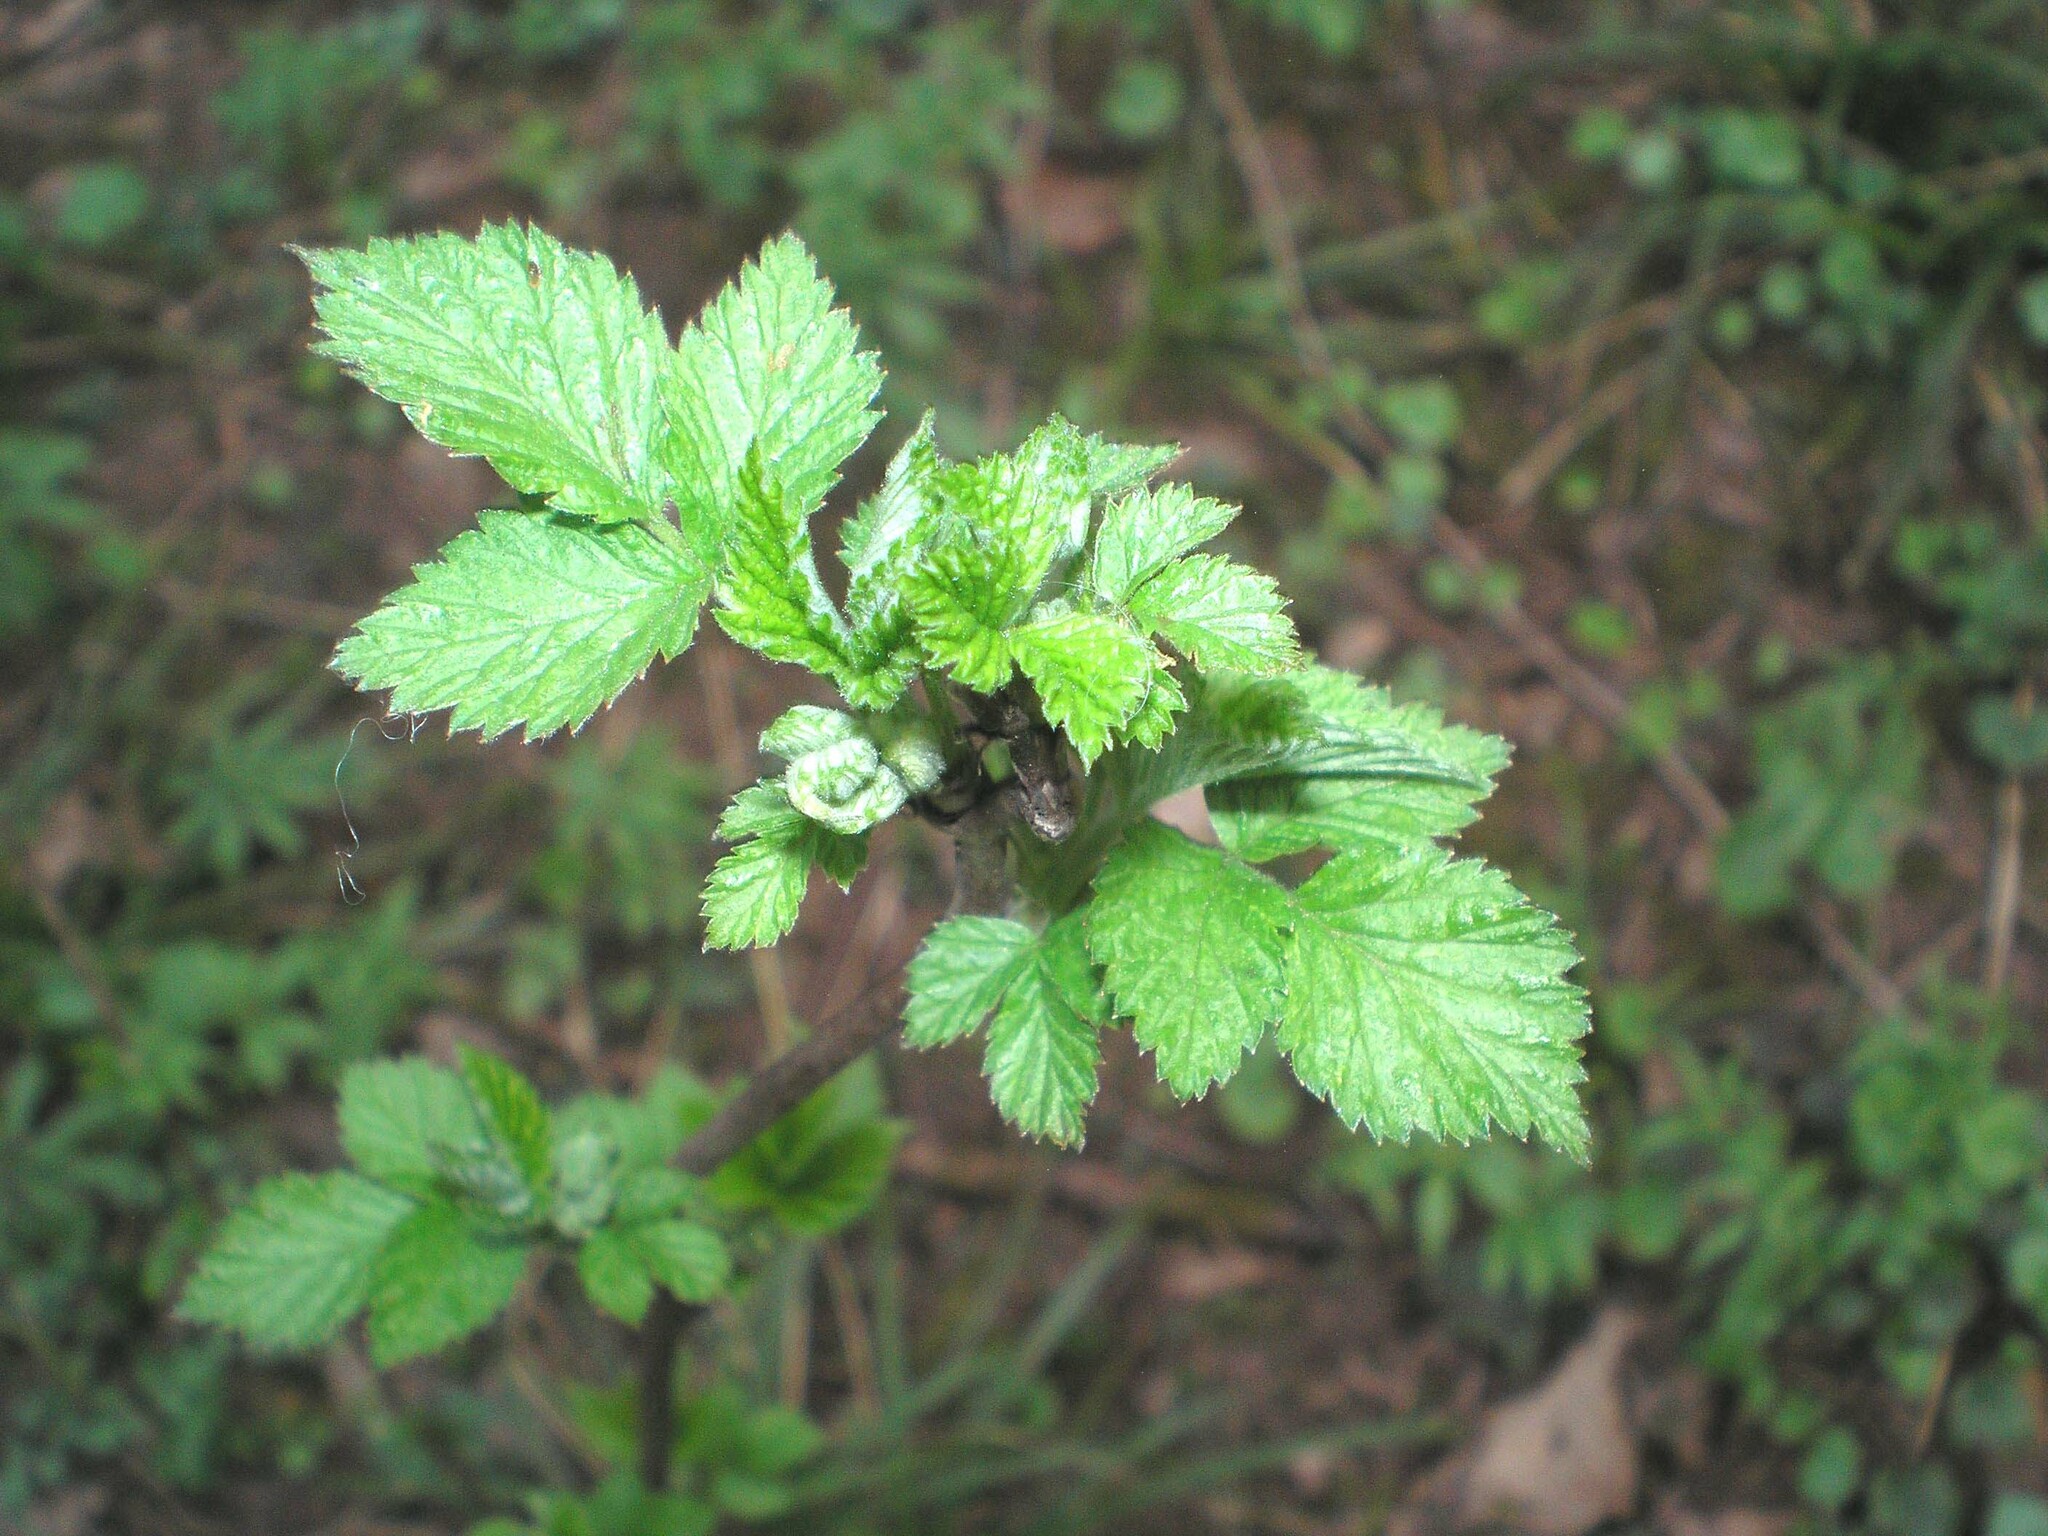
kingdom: Plantae
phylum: Tracheophyta
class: Magnoliopsida
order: Rosales
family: Rosaceae
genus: Rubus
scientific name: Rubus idaeus
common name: Raspberry
